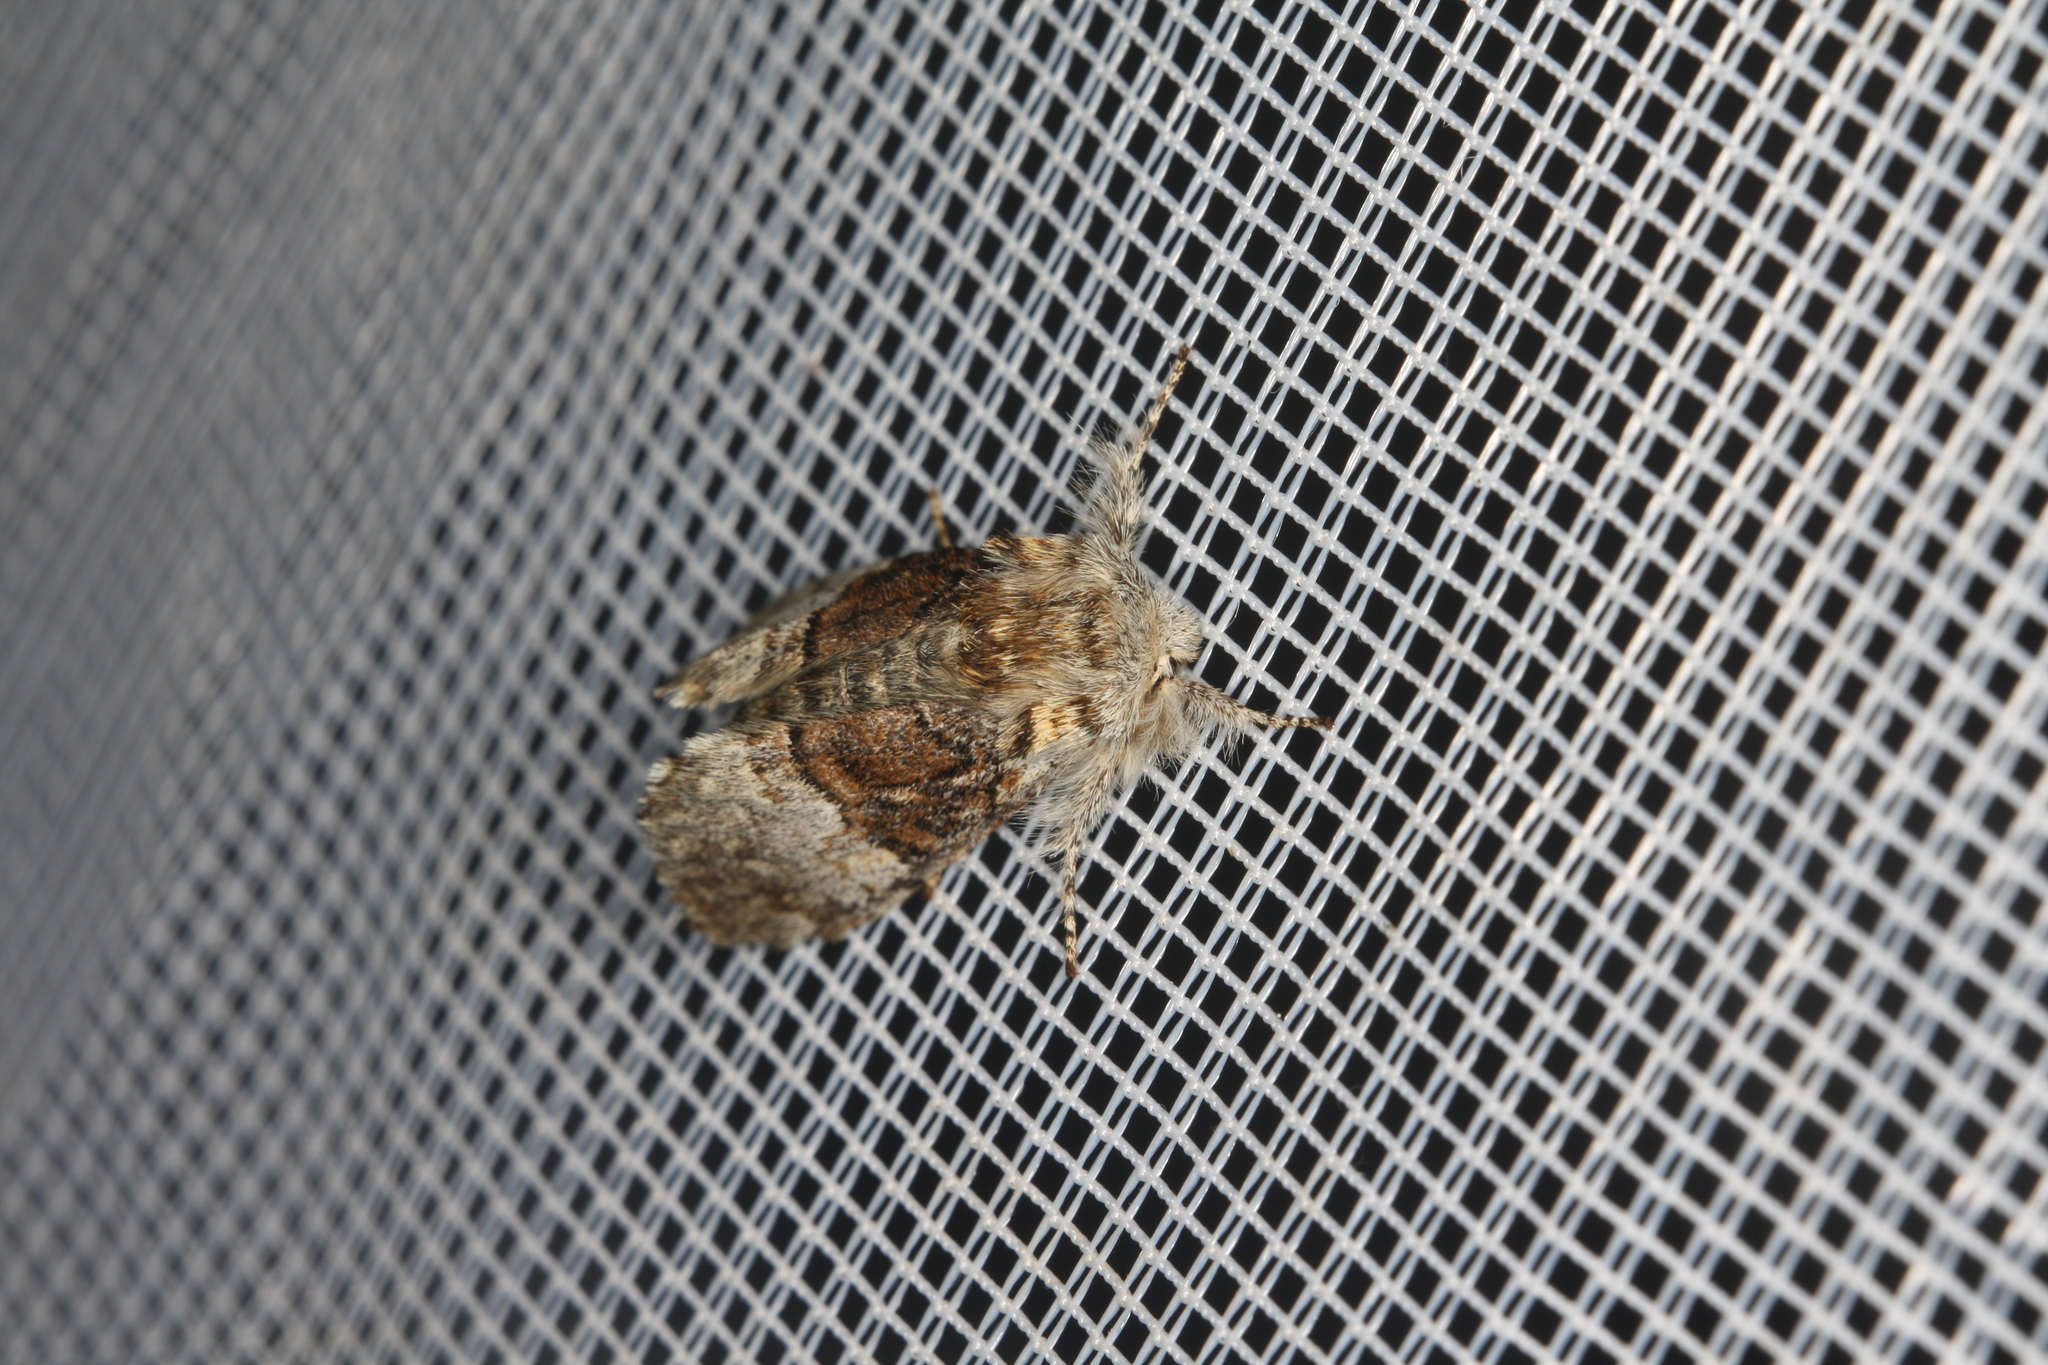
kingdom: Animalia
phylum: Arthropoda
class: Insecta
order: Lepidoptera
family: Noctuidae
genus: Colocasia
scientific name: Colocasia coryli
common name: Nut-tree tussock
